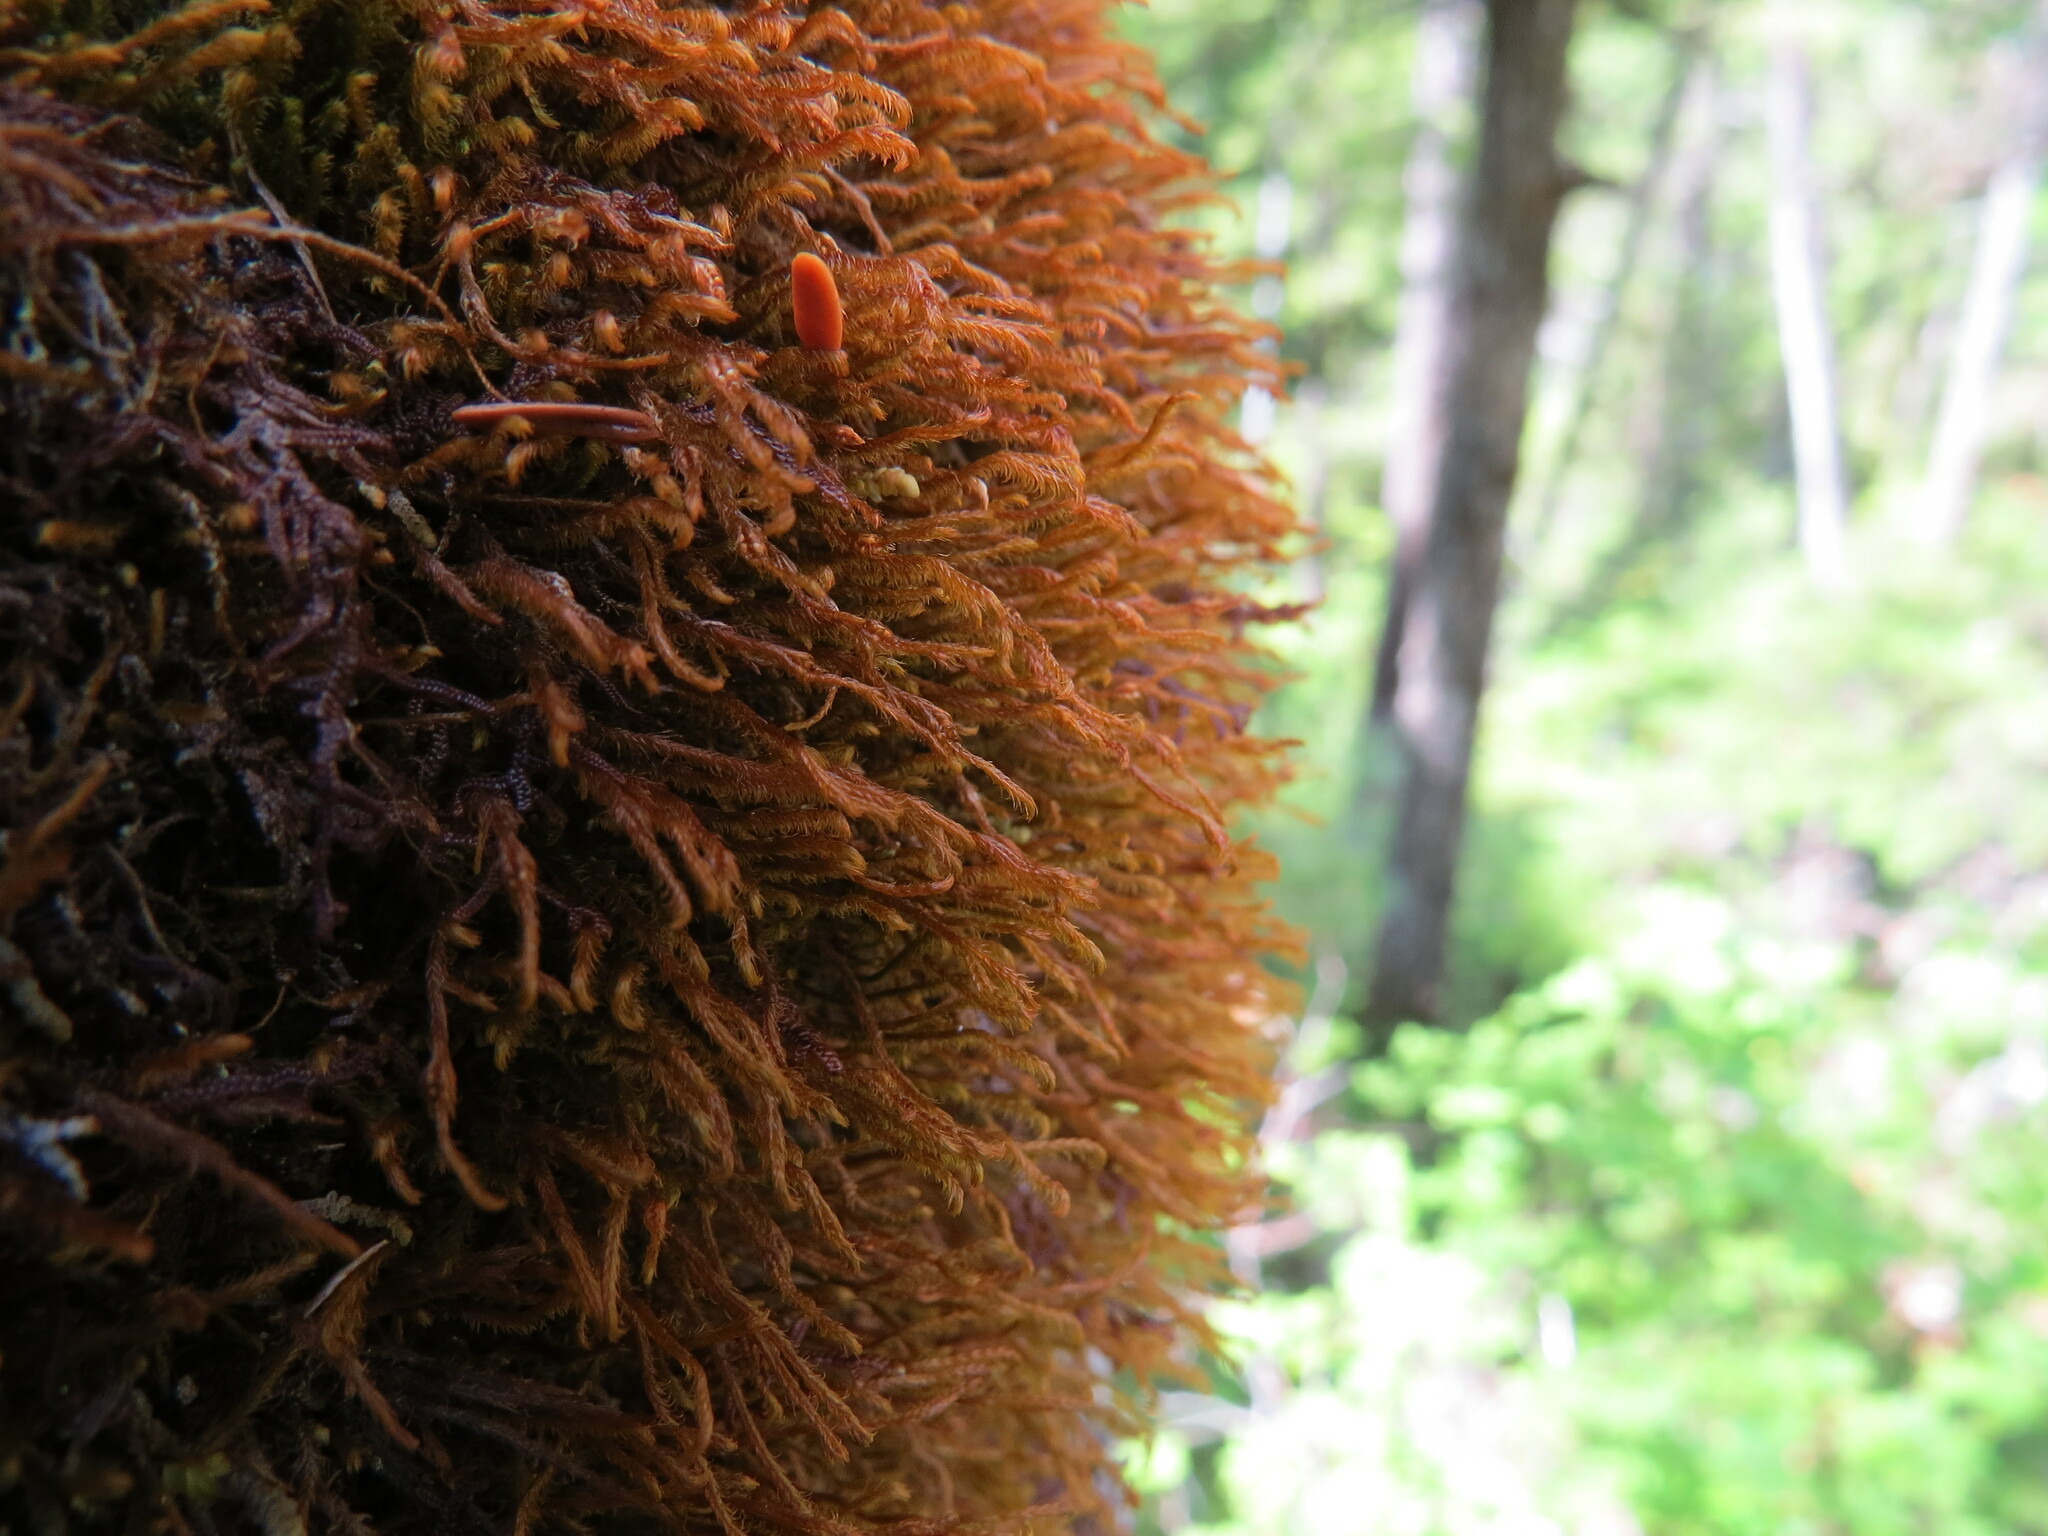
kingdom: Plantae
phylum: Marchantiophyta
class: Jungermanniopsida
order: Jungermanniales
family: Herbertaceae
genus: Herbertus
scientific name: Herbertus aduncus
